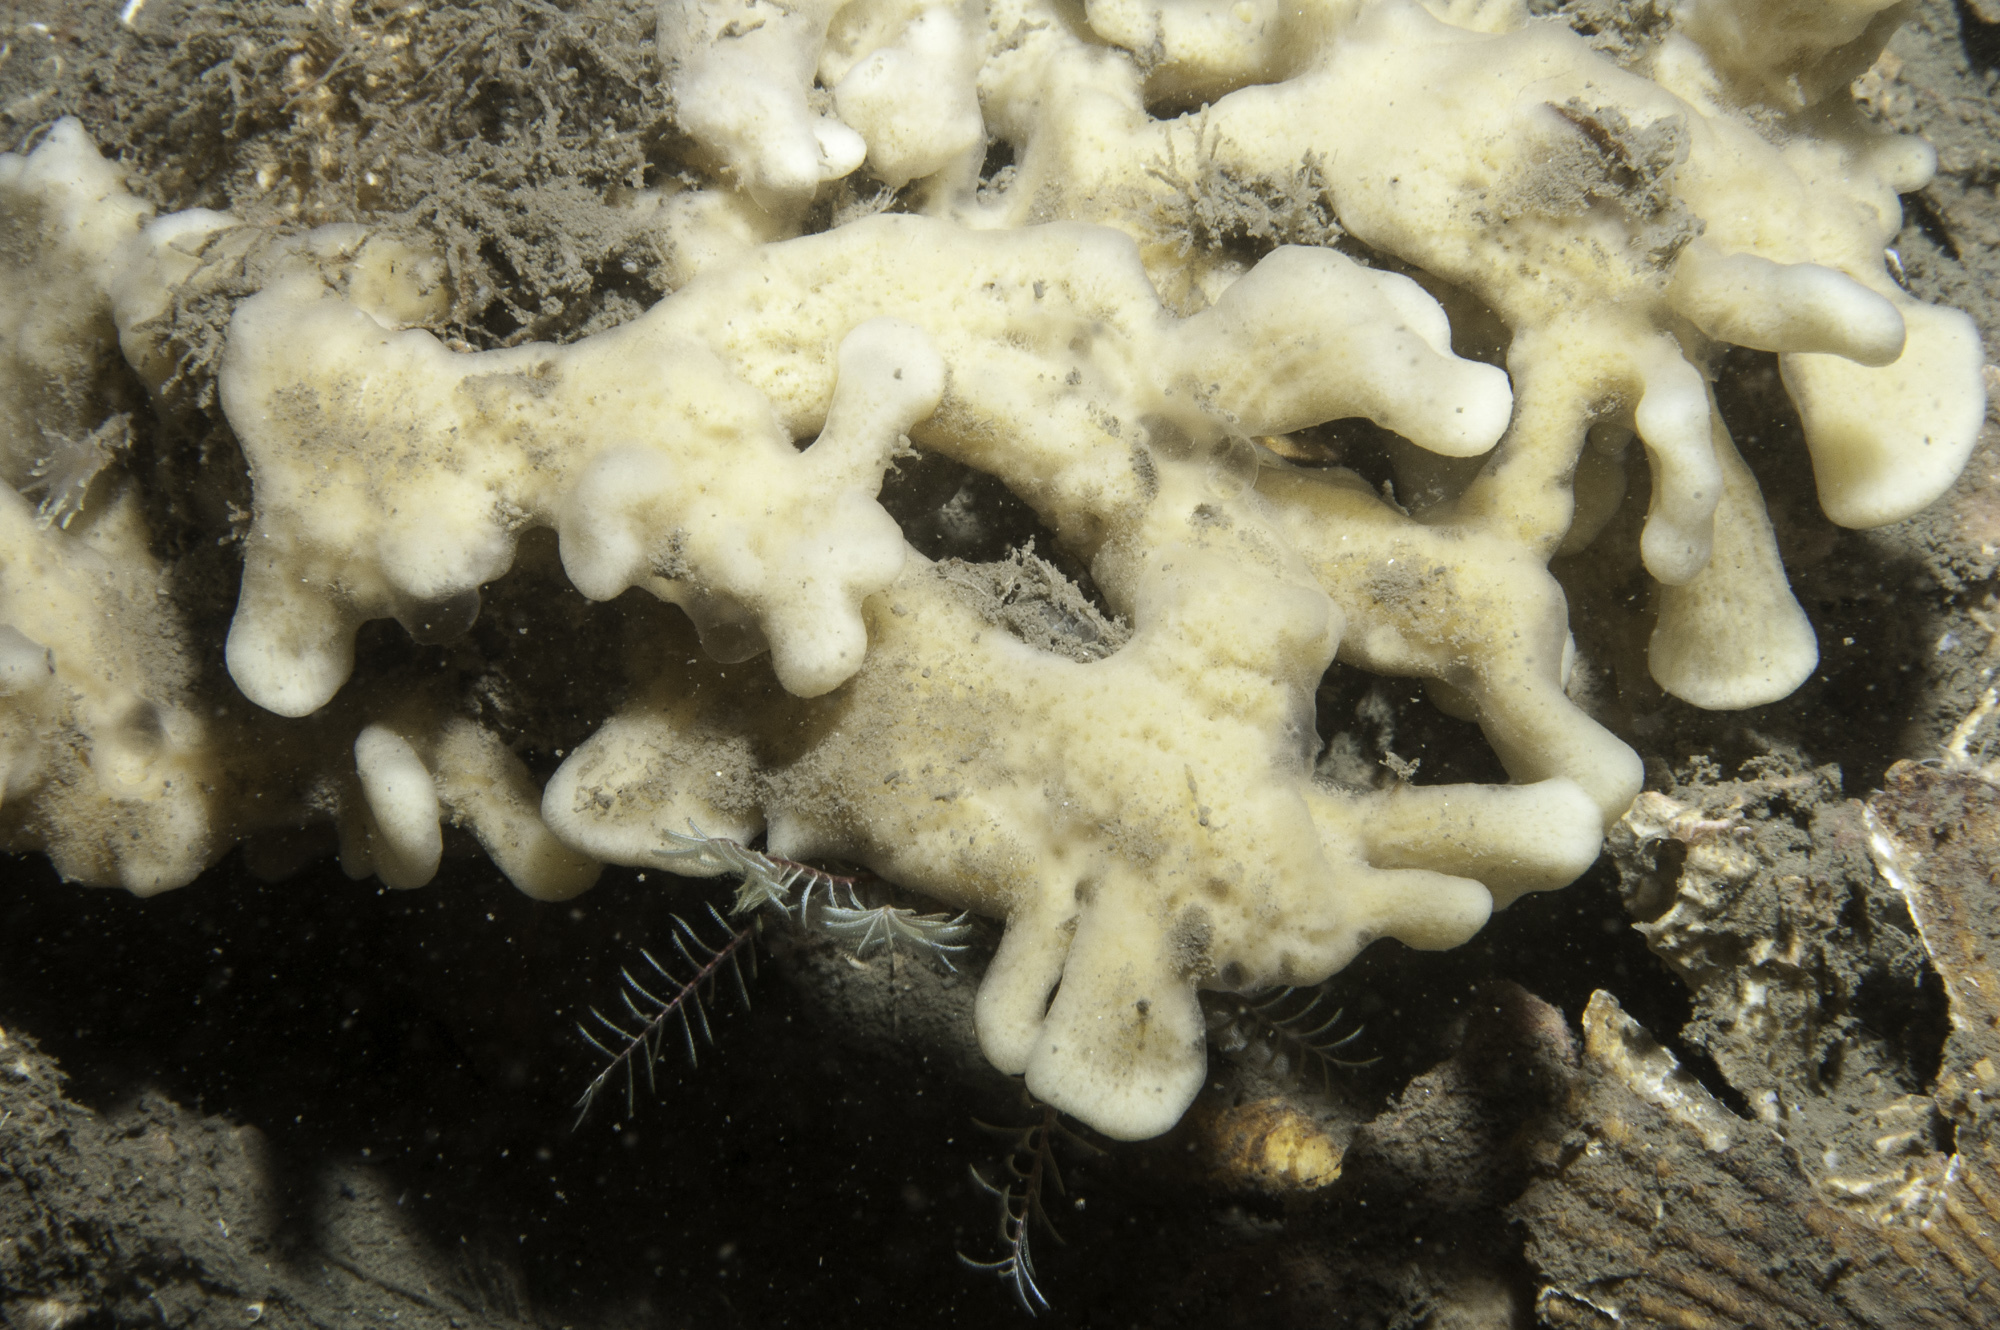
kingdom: Animalia
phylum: Porifera
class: Demospongiae
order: Haplosclerida
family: Chalinidae
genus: Haliclona
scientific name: Haliclona fistulosa
